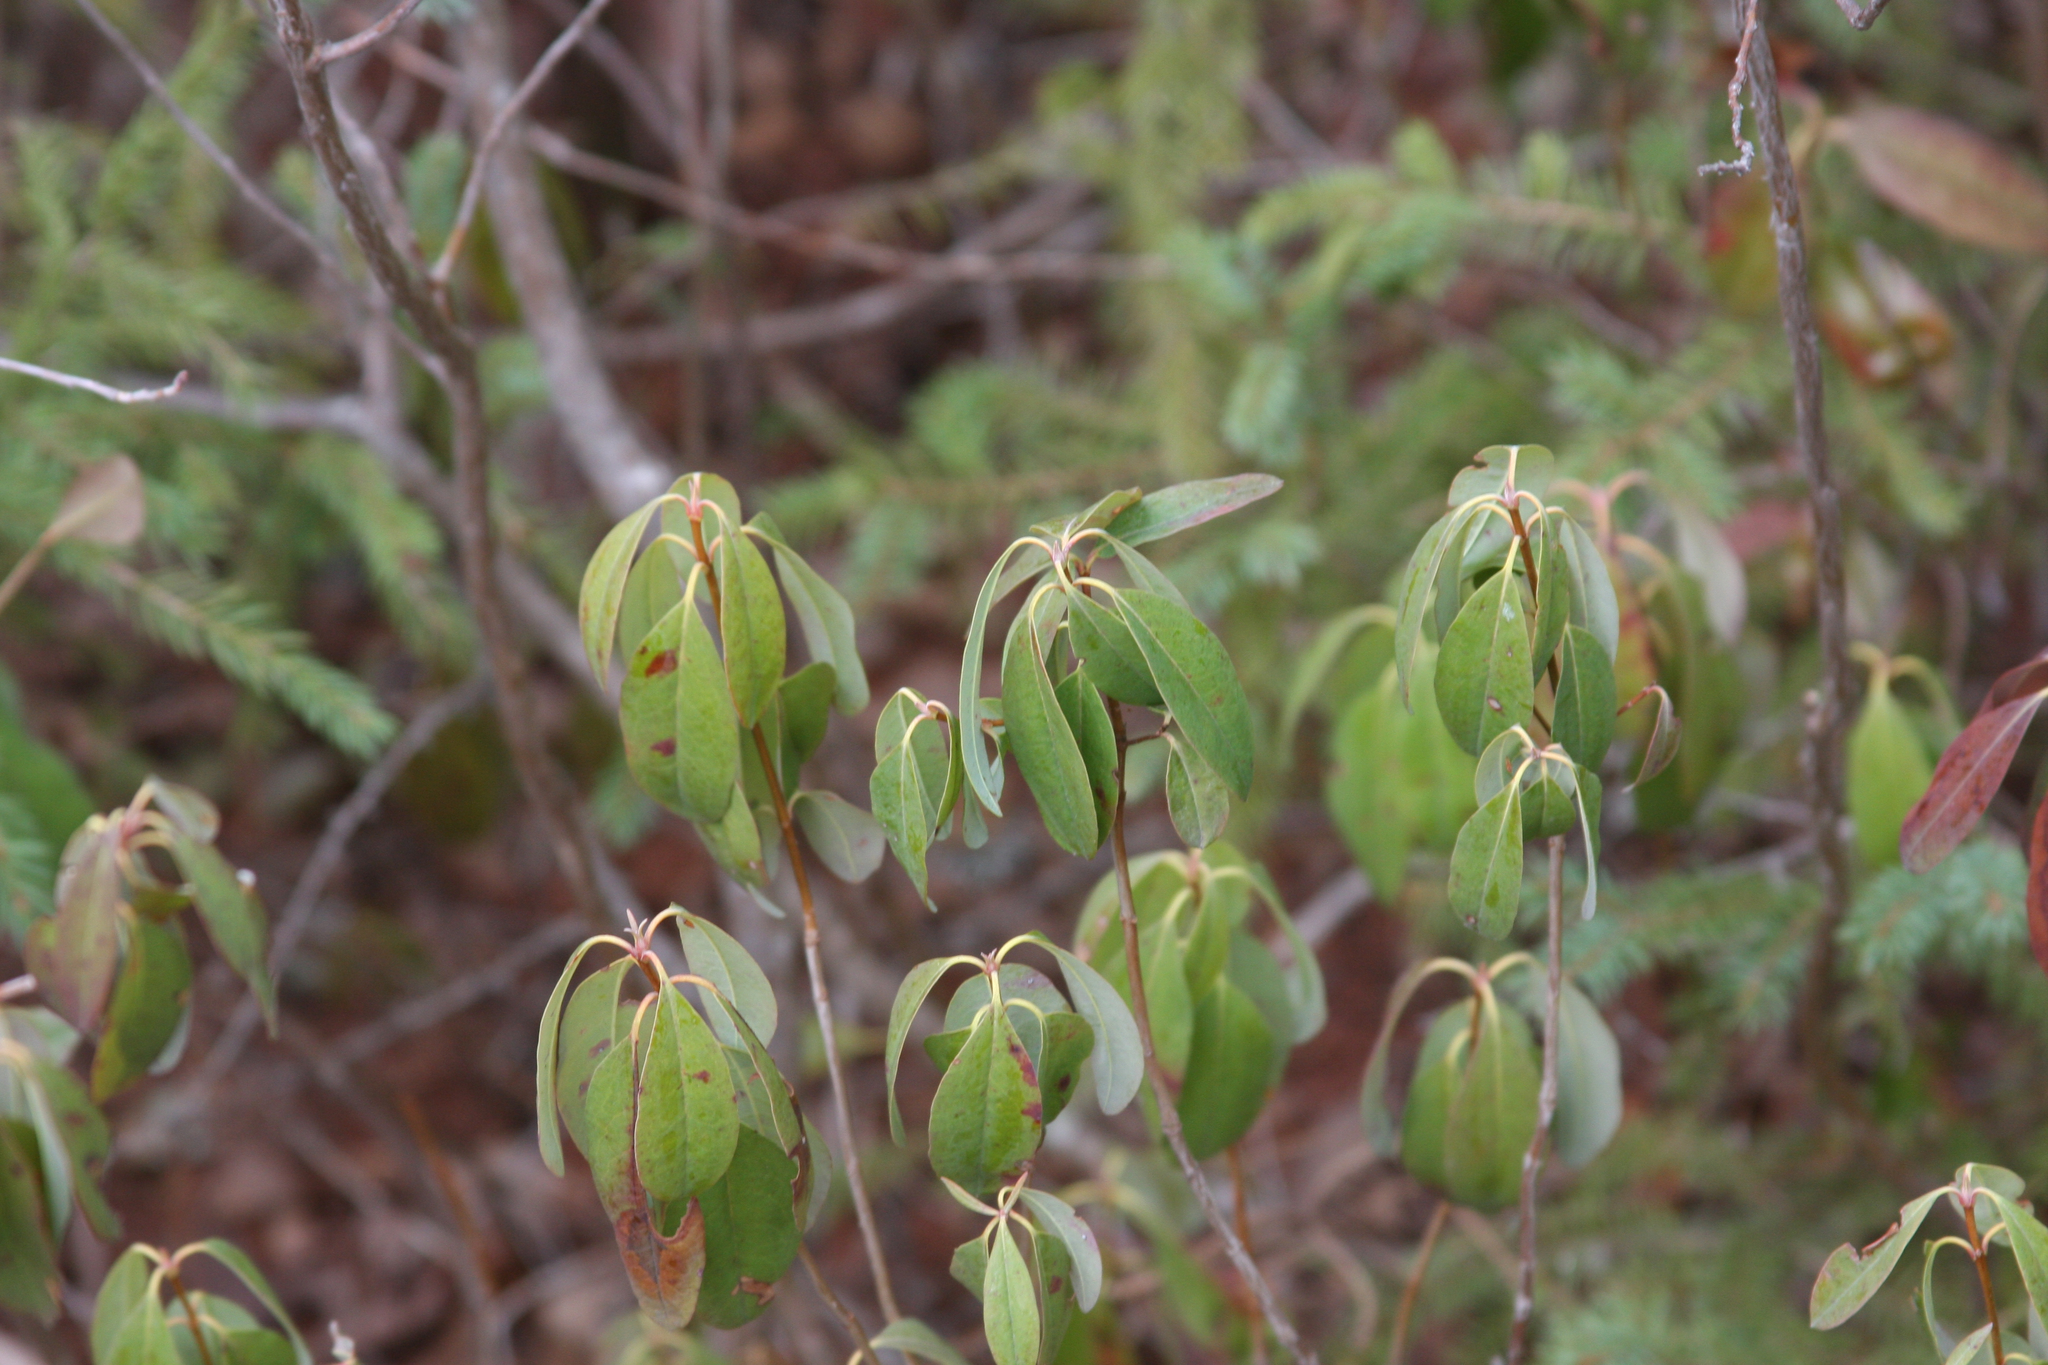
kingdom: Plantae
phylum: Tracheophyta
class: Magnoliopsida
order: Ericales
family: Ericaceae
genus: Kalmia
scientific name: Kalmia angustifolia
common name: Sheep-laurel
